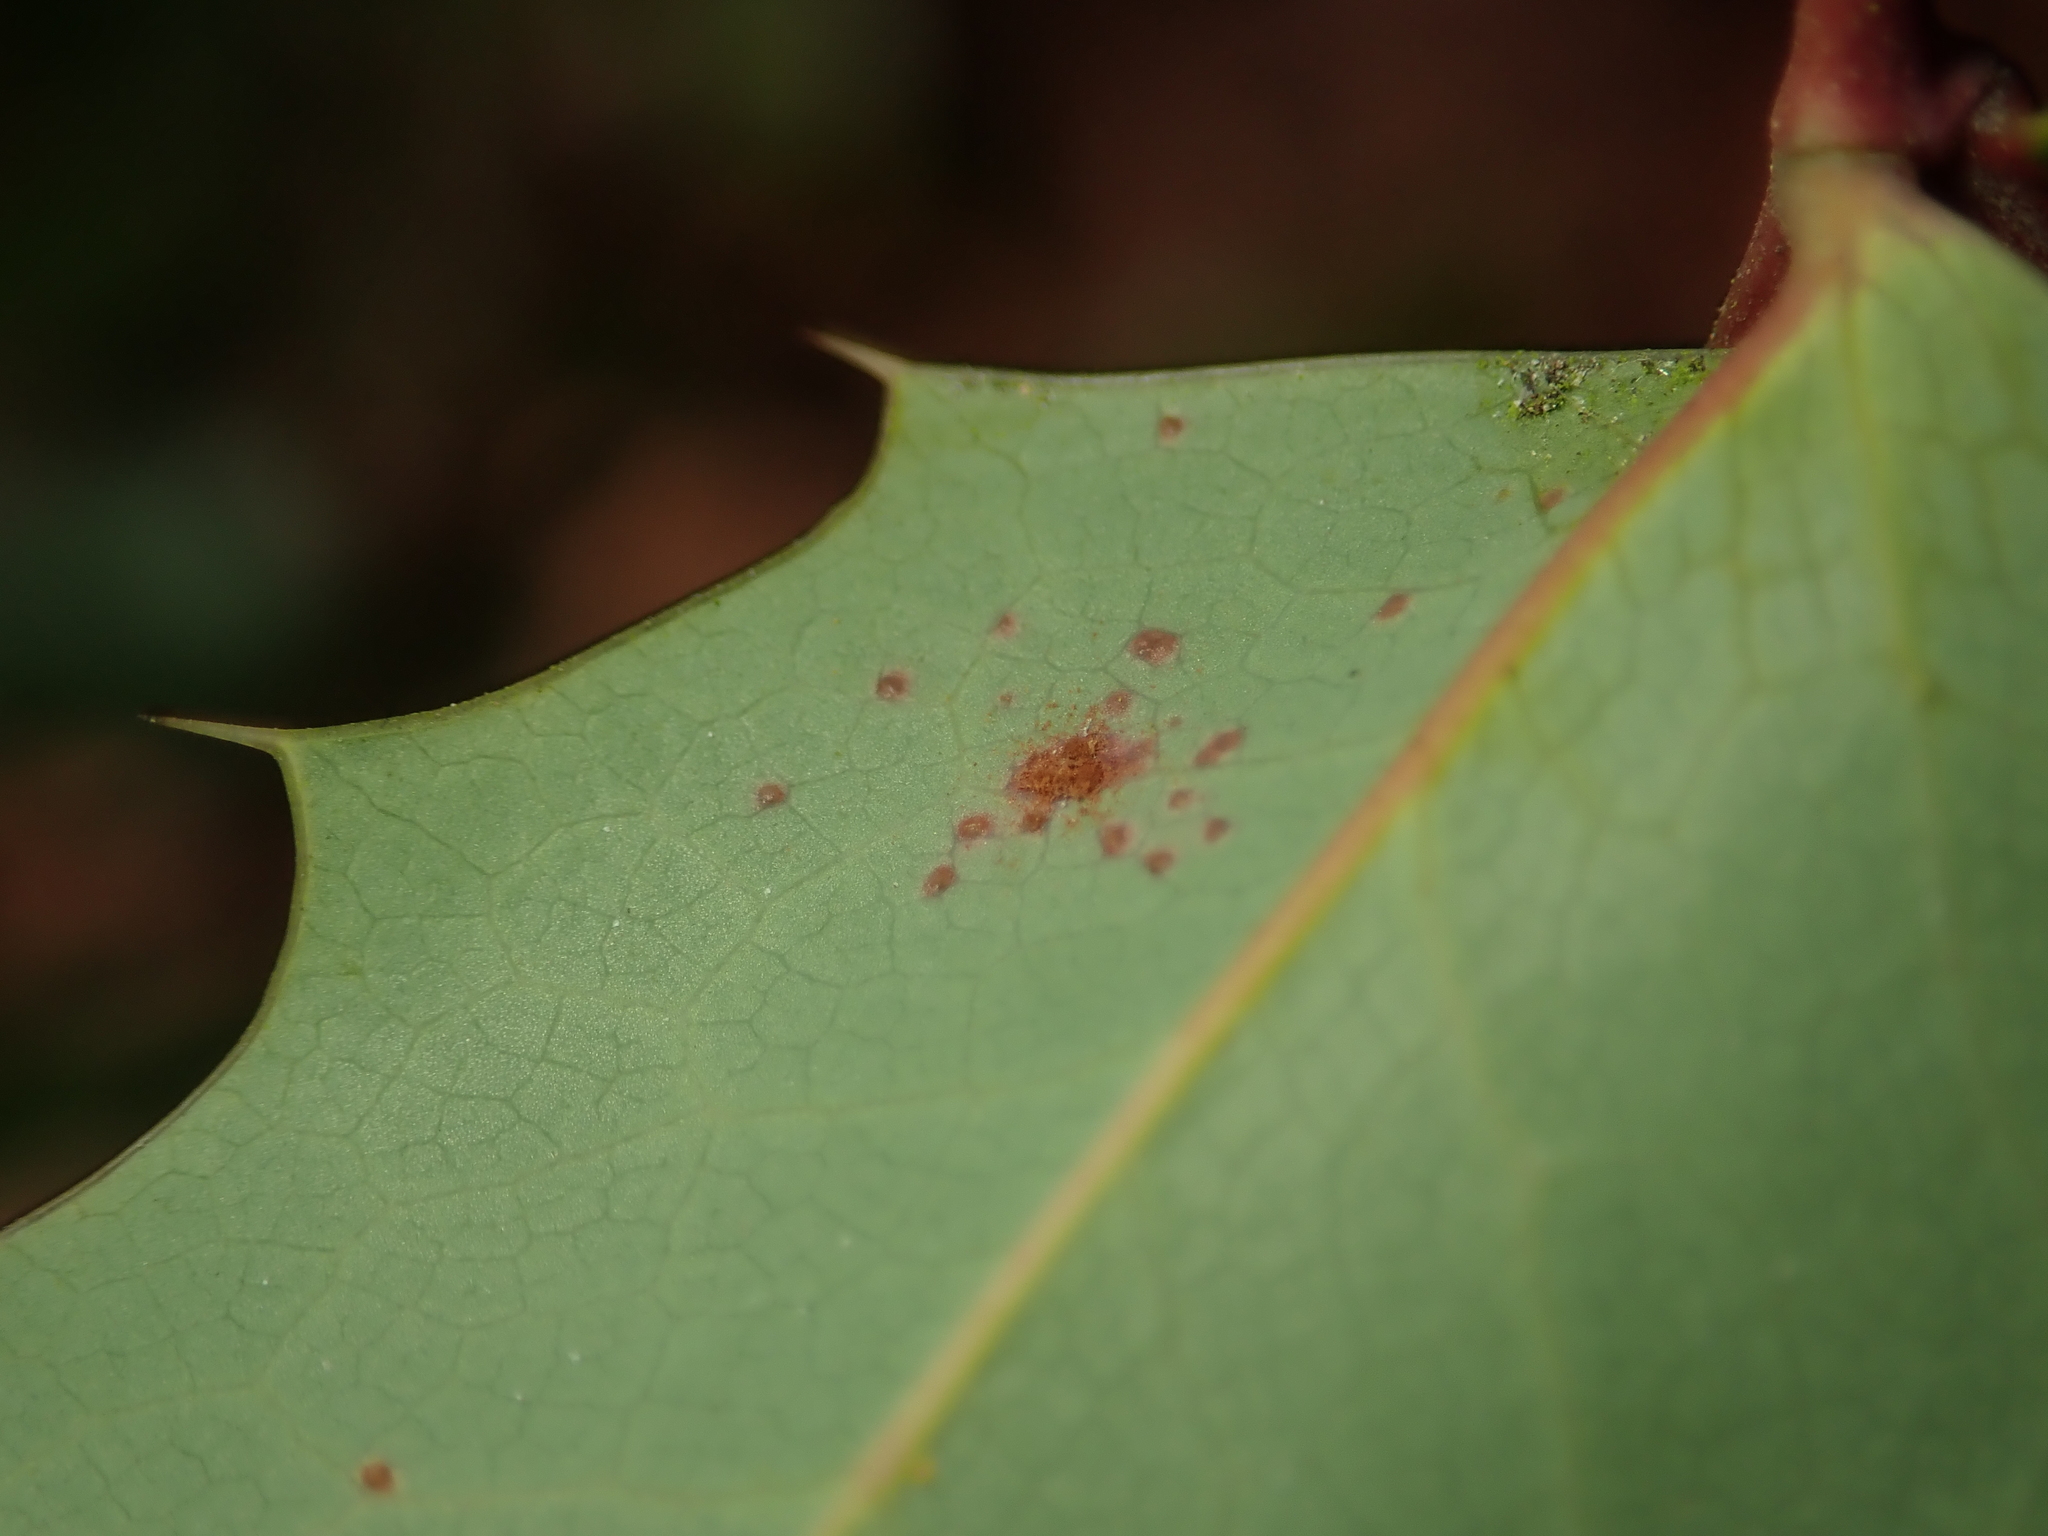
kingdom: Fungi
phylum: Basidiomycota
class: Pucciniomycetes
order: Pucciniales
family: Pucciniaceae
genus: Cumminsiella
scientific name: Cumminsiella mirabilissima
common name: Mahonia rust
